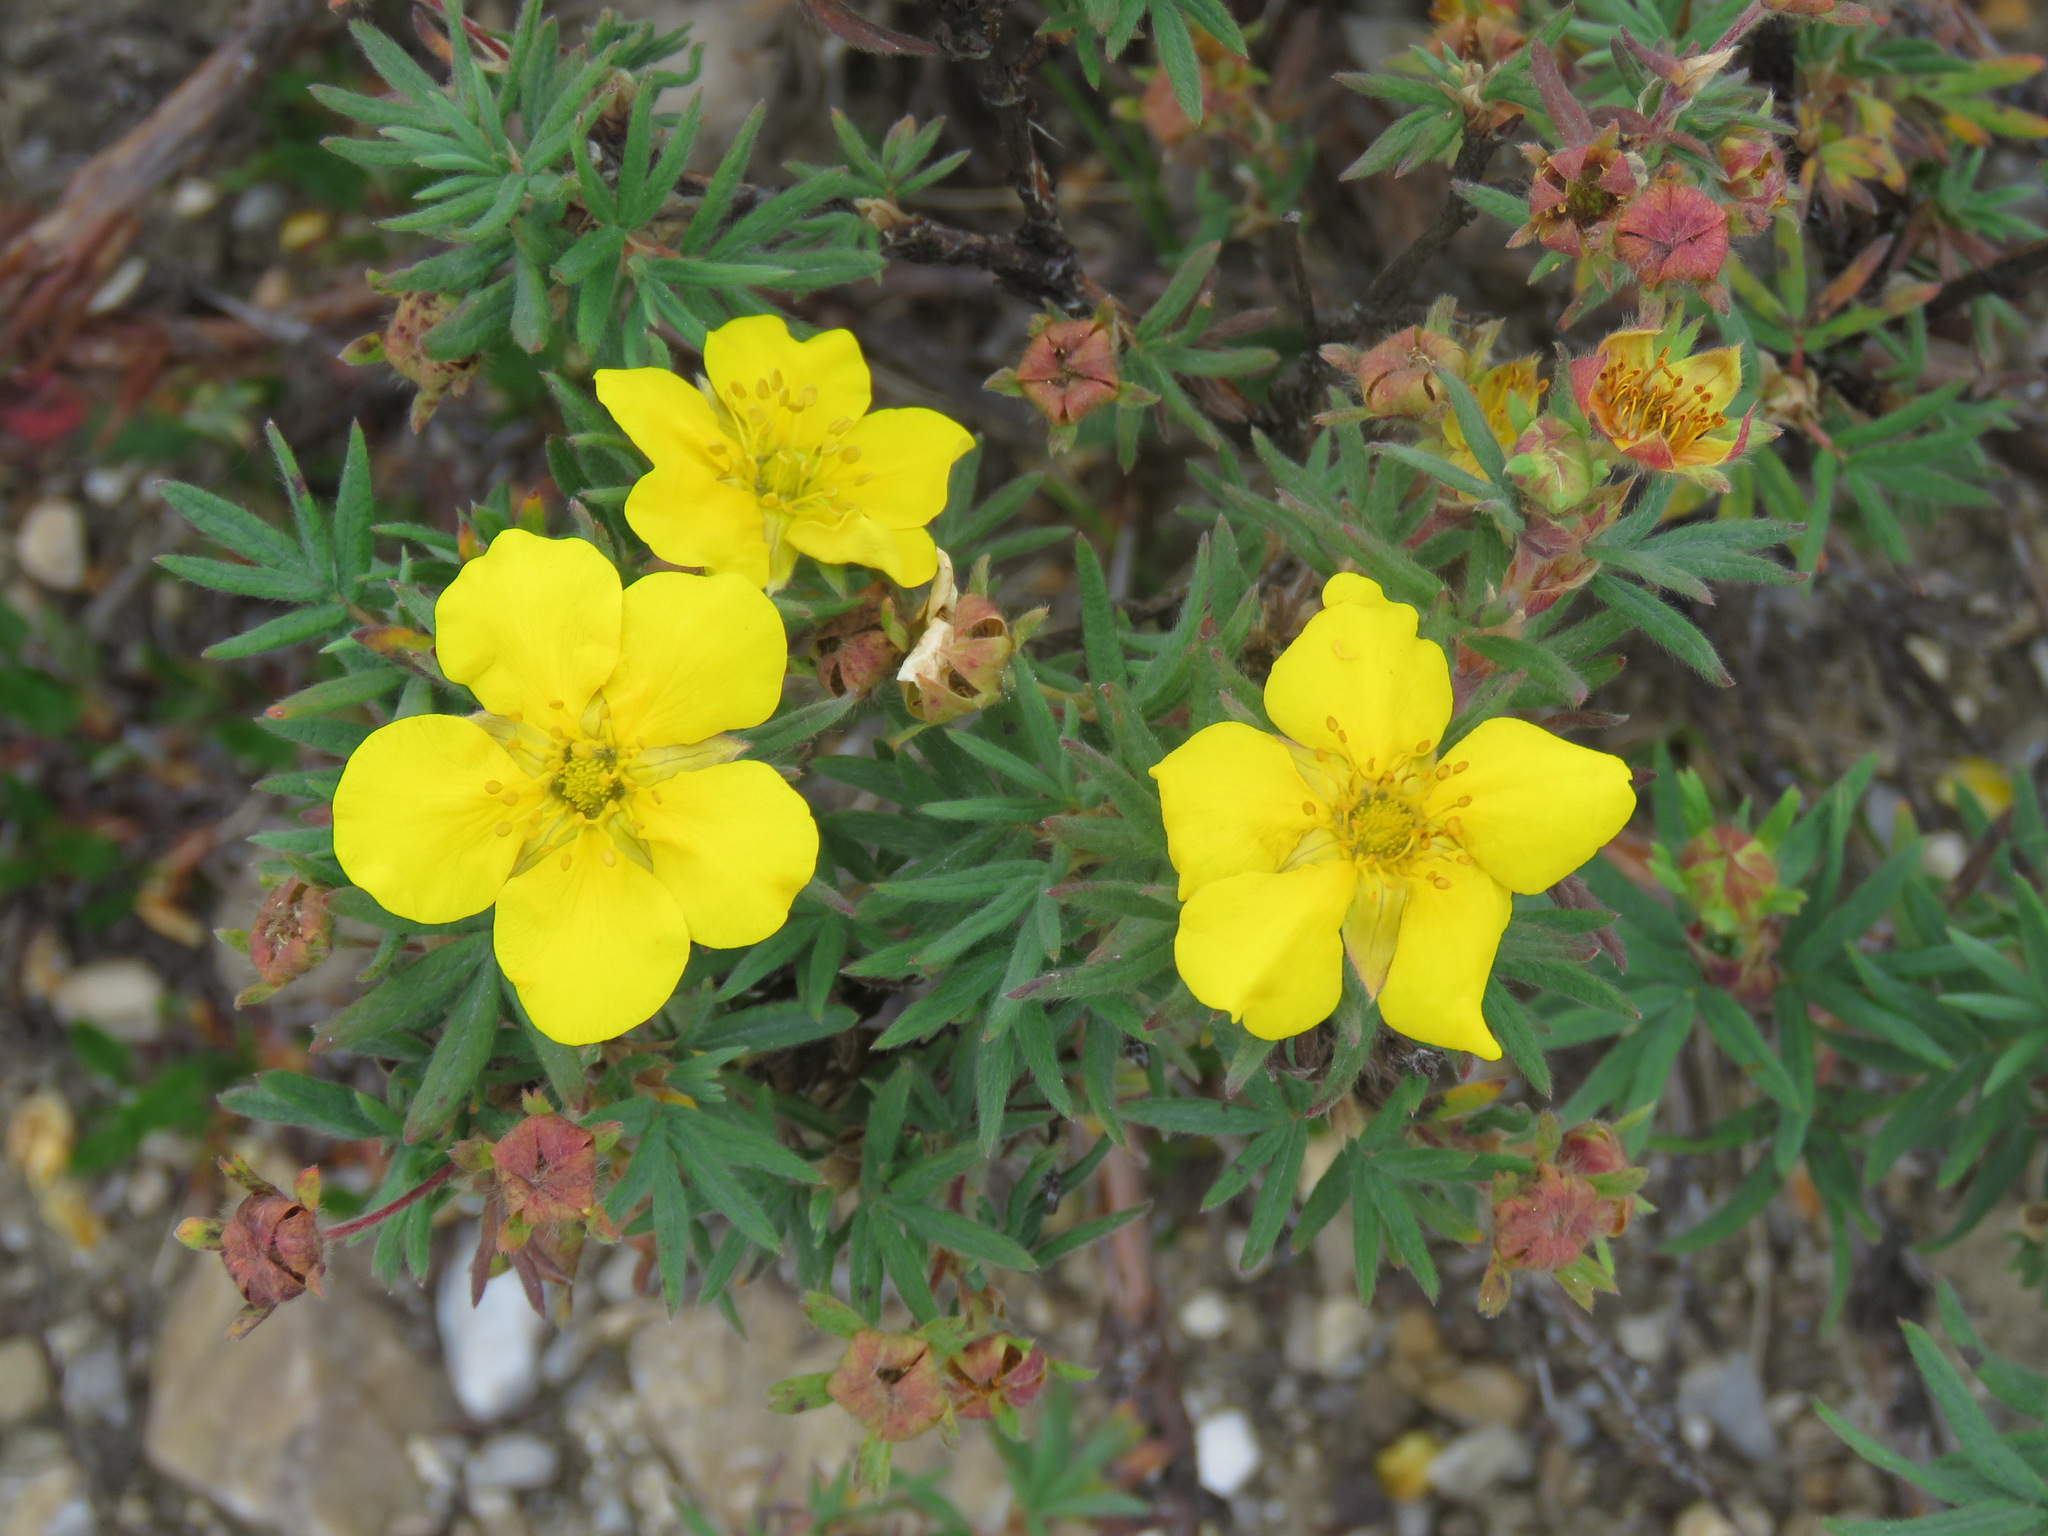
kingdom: Plantae
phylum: Tracheophyta
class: Magnoliopsida
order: Rosales
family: Rosaceae
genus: Dasiphora
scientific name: Dasiphora fruticosa
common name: Shrubby cinquefoil
